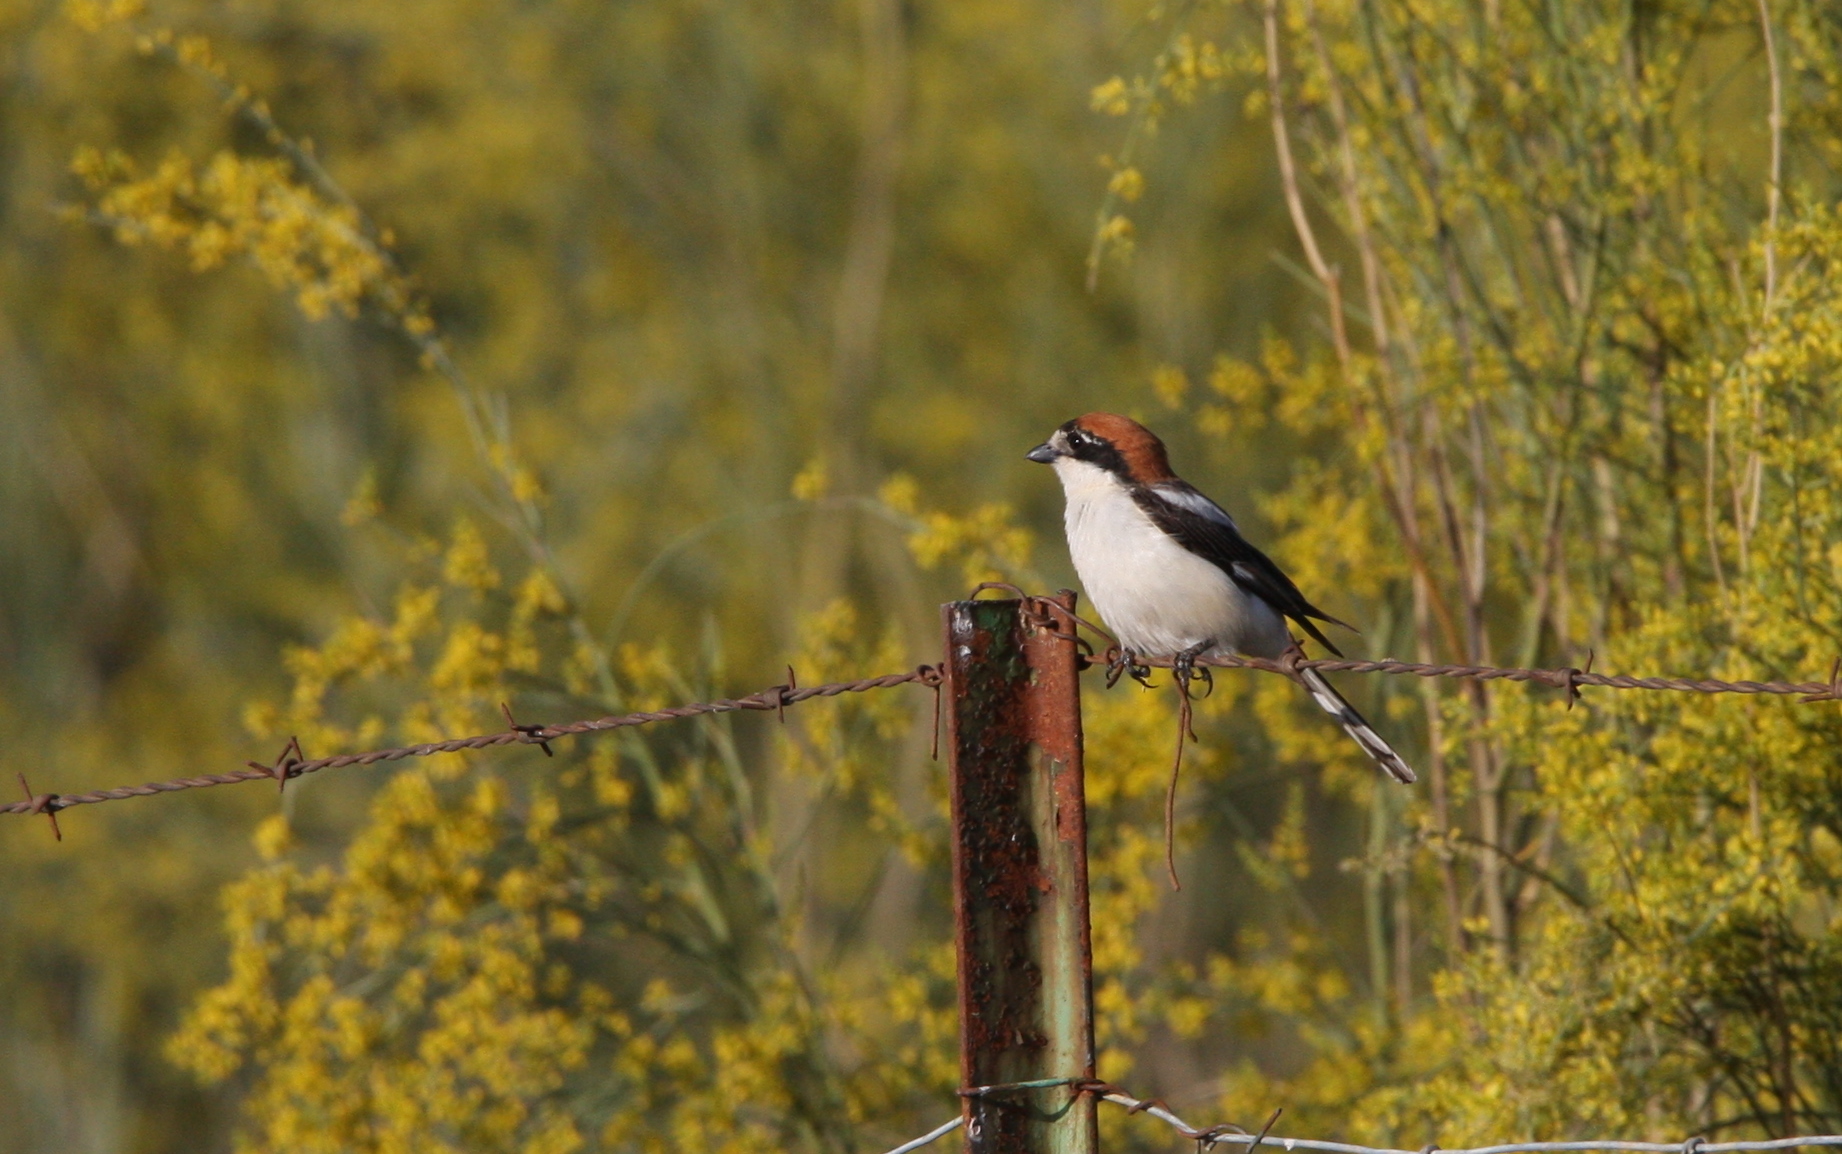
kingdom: Animalia
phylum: Chordata
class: Aves
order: Passeriformes
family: Laniidae
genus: Lanius
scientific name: Lanius senator
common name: Woodchat shrike
